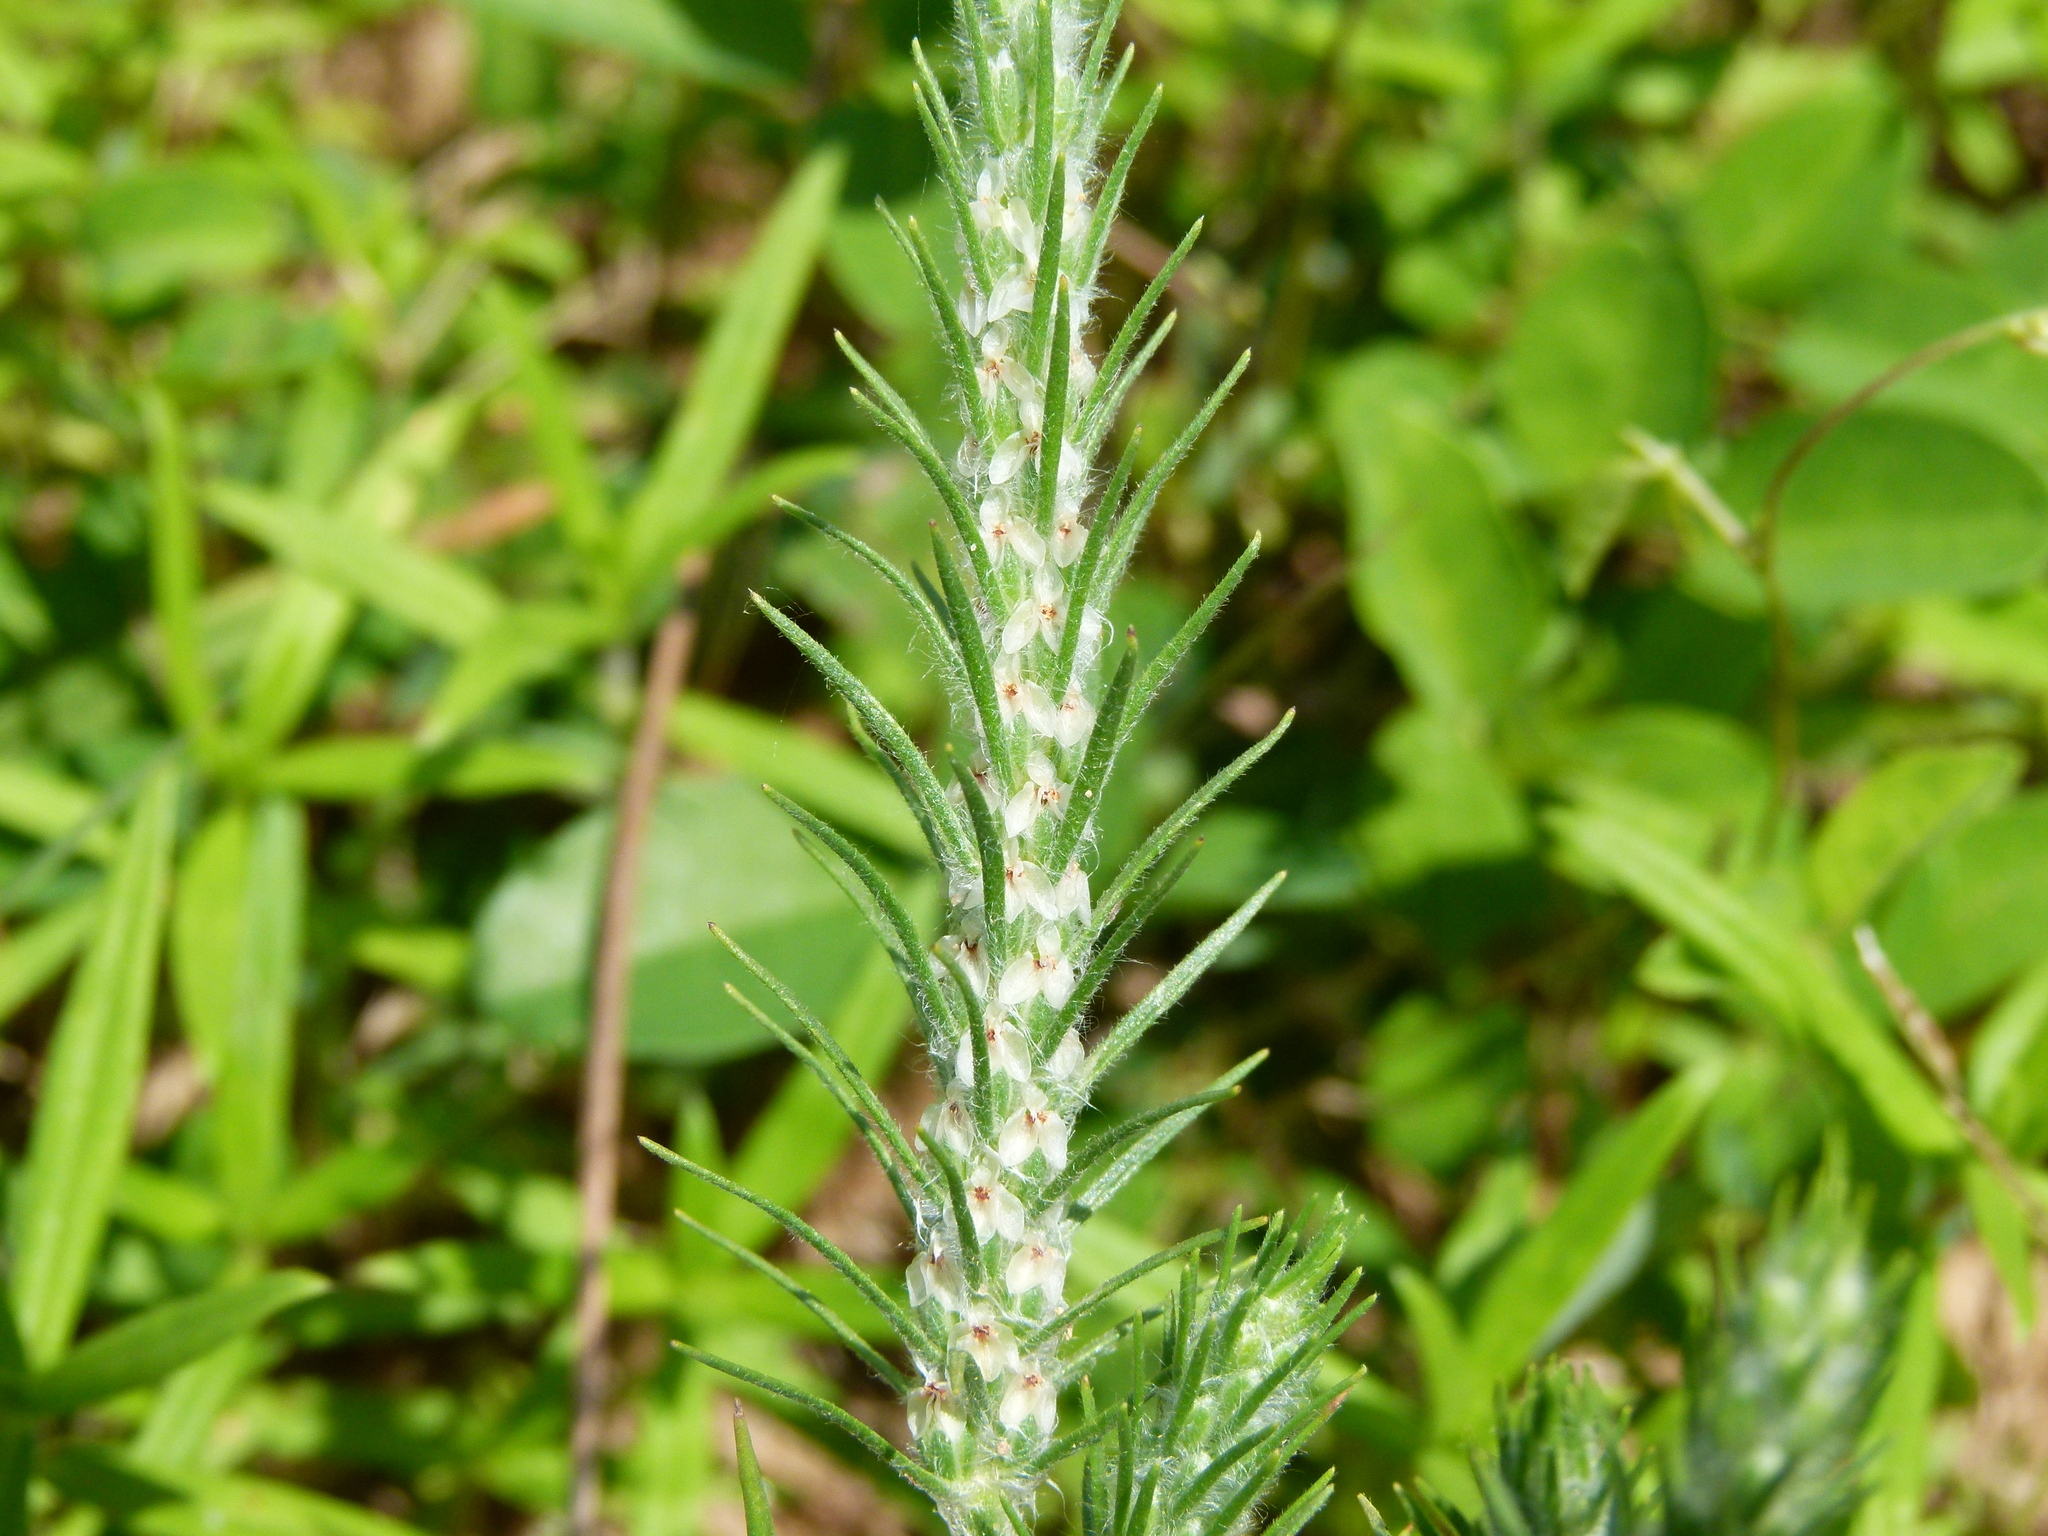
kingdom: Plantae
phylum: Tracheophyta
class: Magnoliopsida
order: Lamiales
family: Plantaginaceae
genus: Plantago
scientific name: Plantago aristata
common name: Bracted plantain
